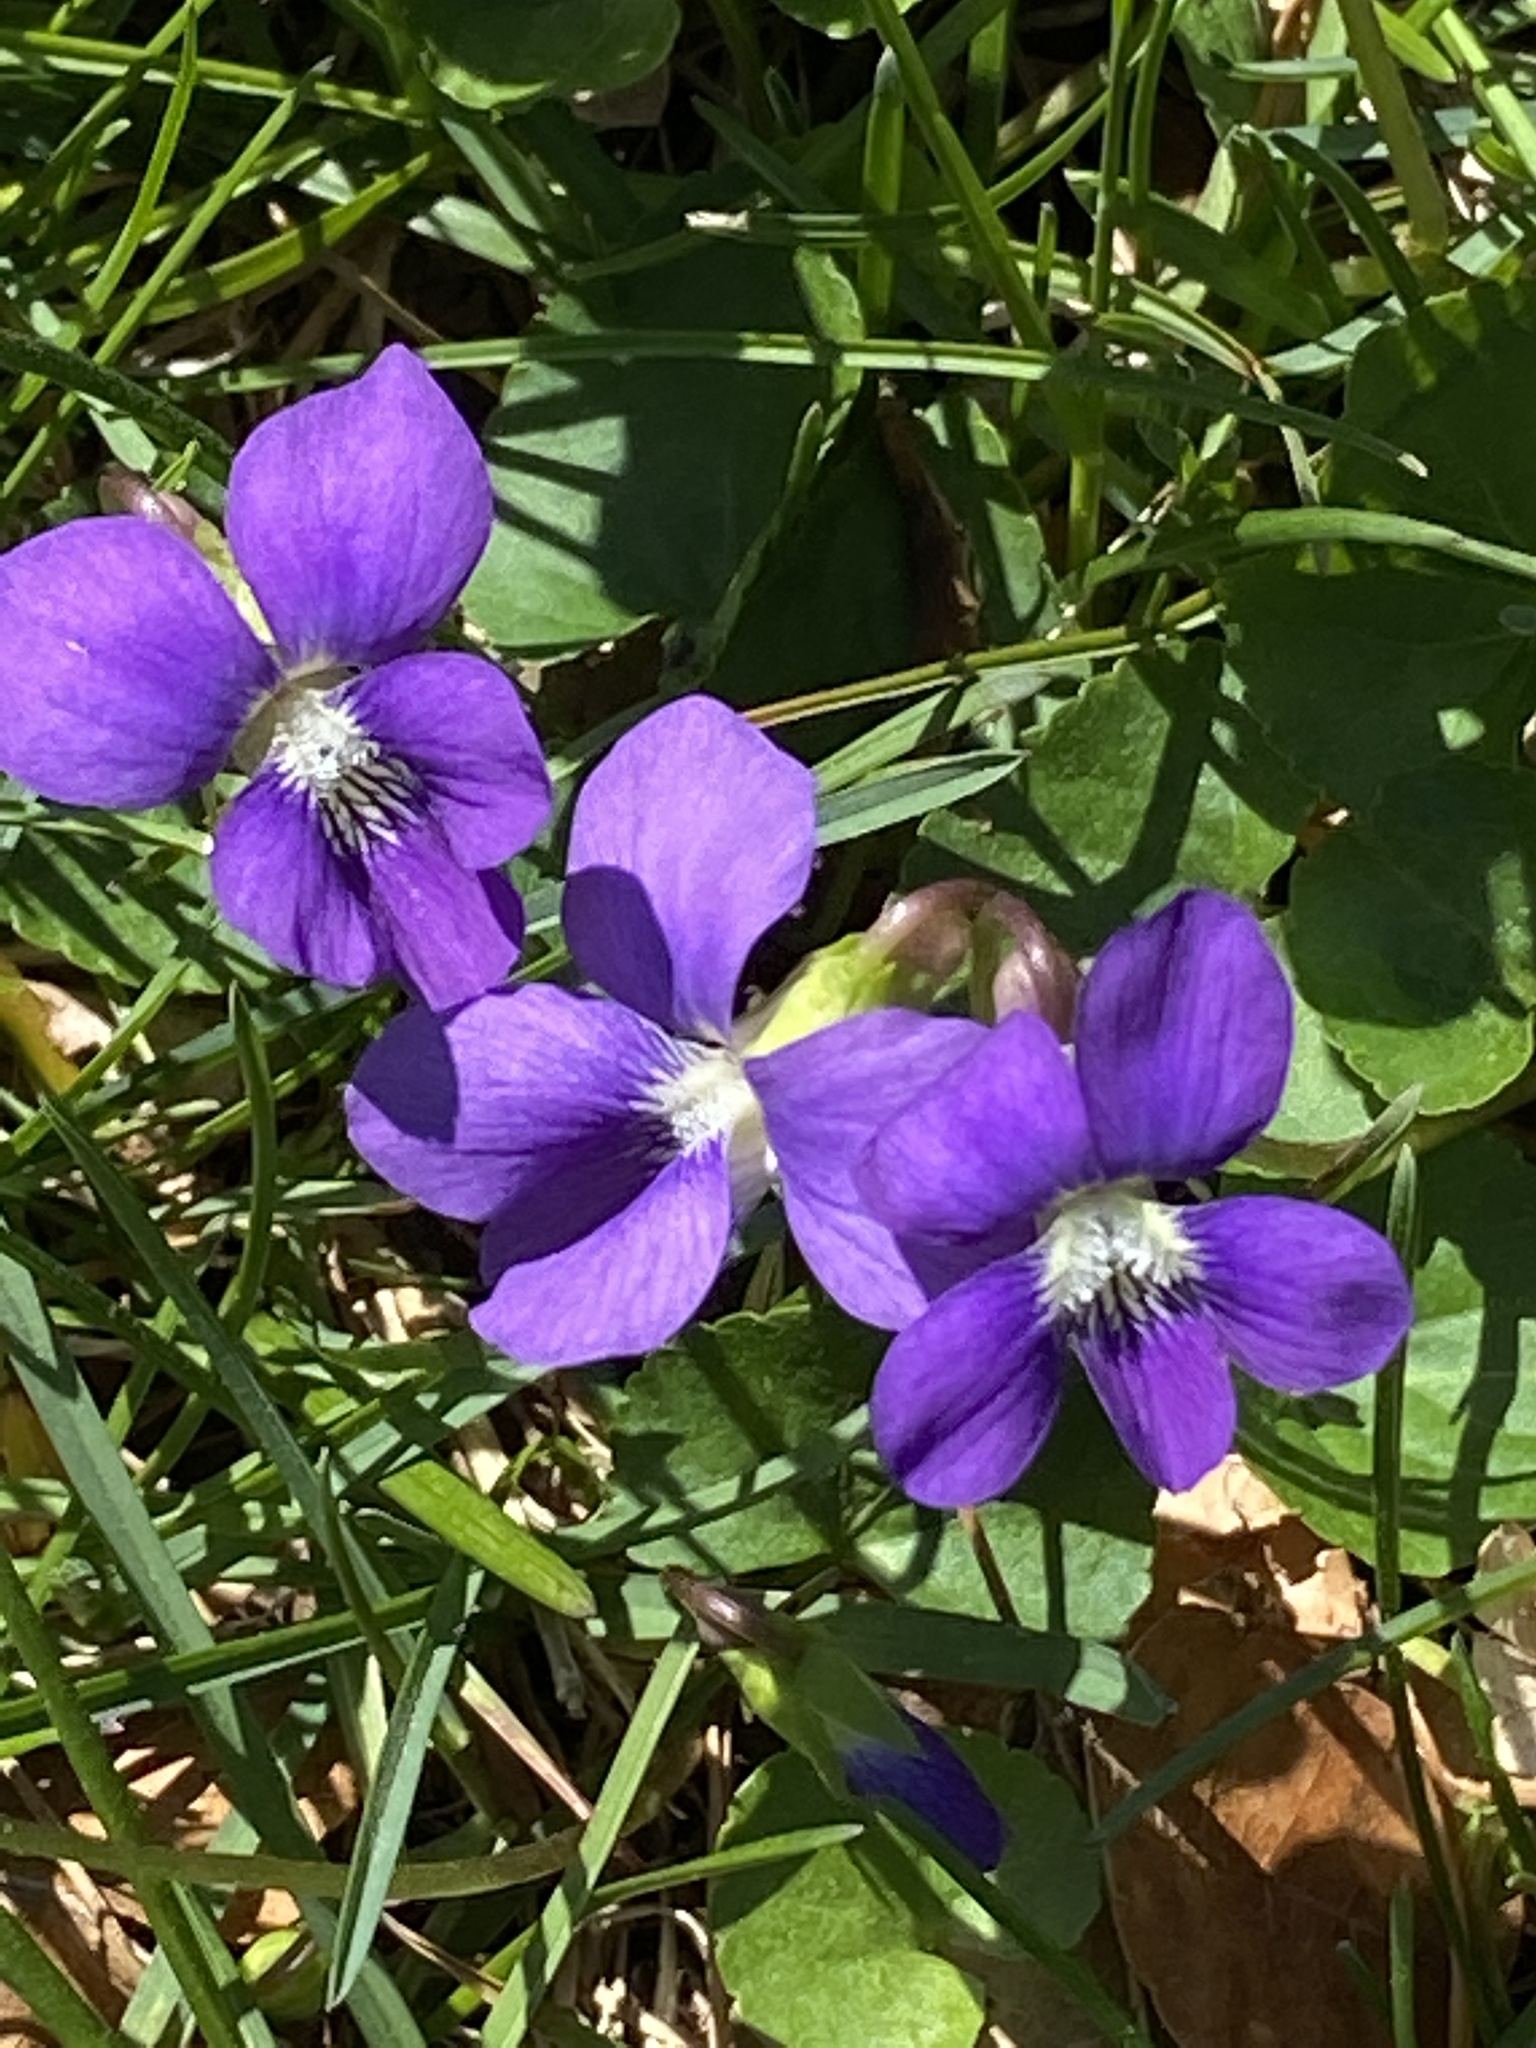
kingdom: Plantae
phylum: Tracheophyta
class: Magnoliopsida
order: Malpighiales
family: Violaceae
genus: Viola
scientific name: Viola sororia
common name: Dooryard violet
